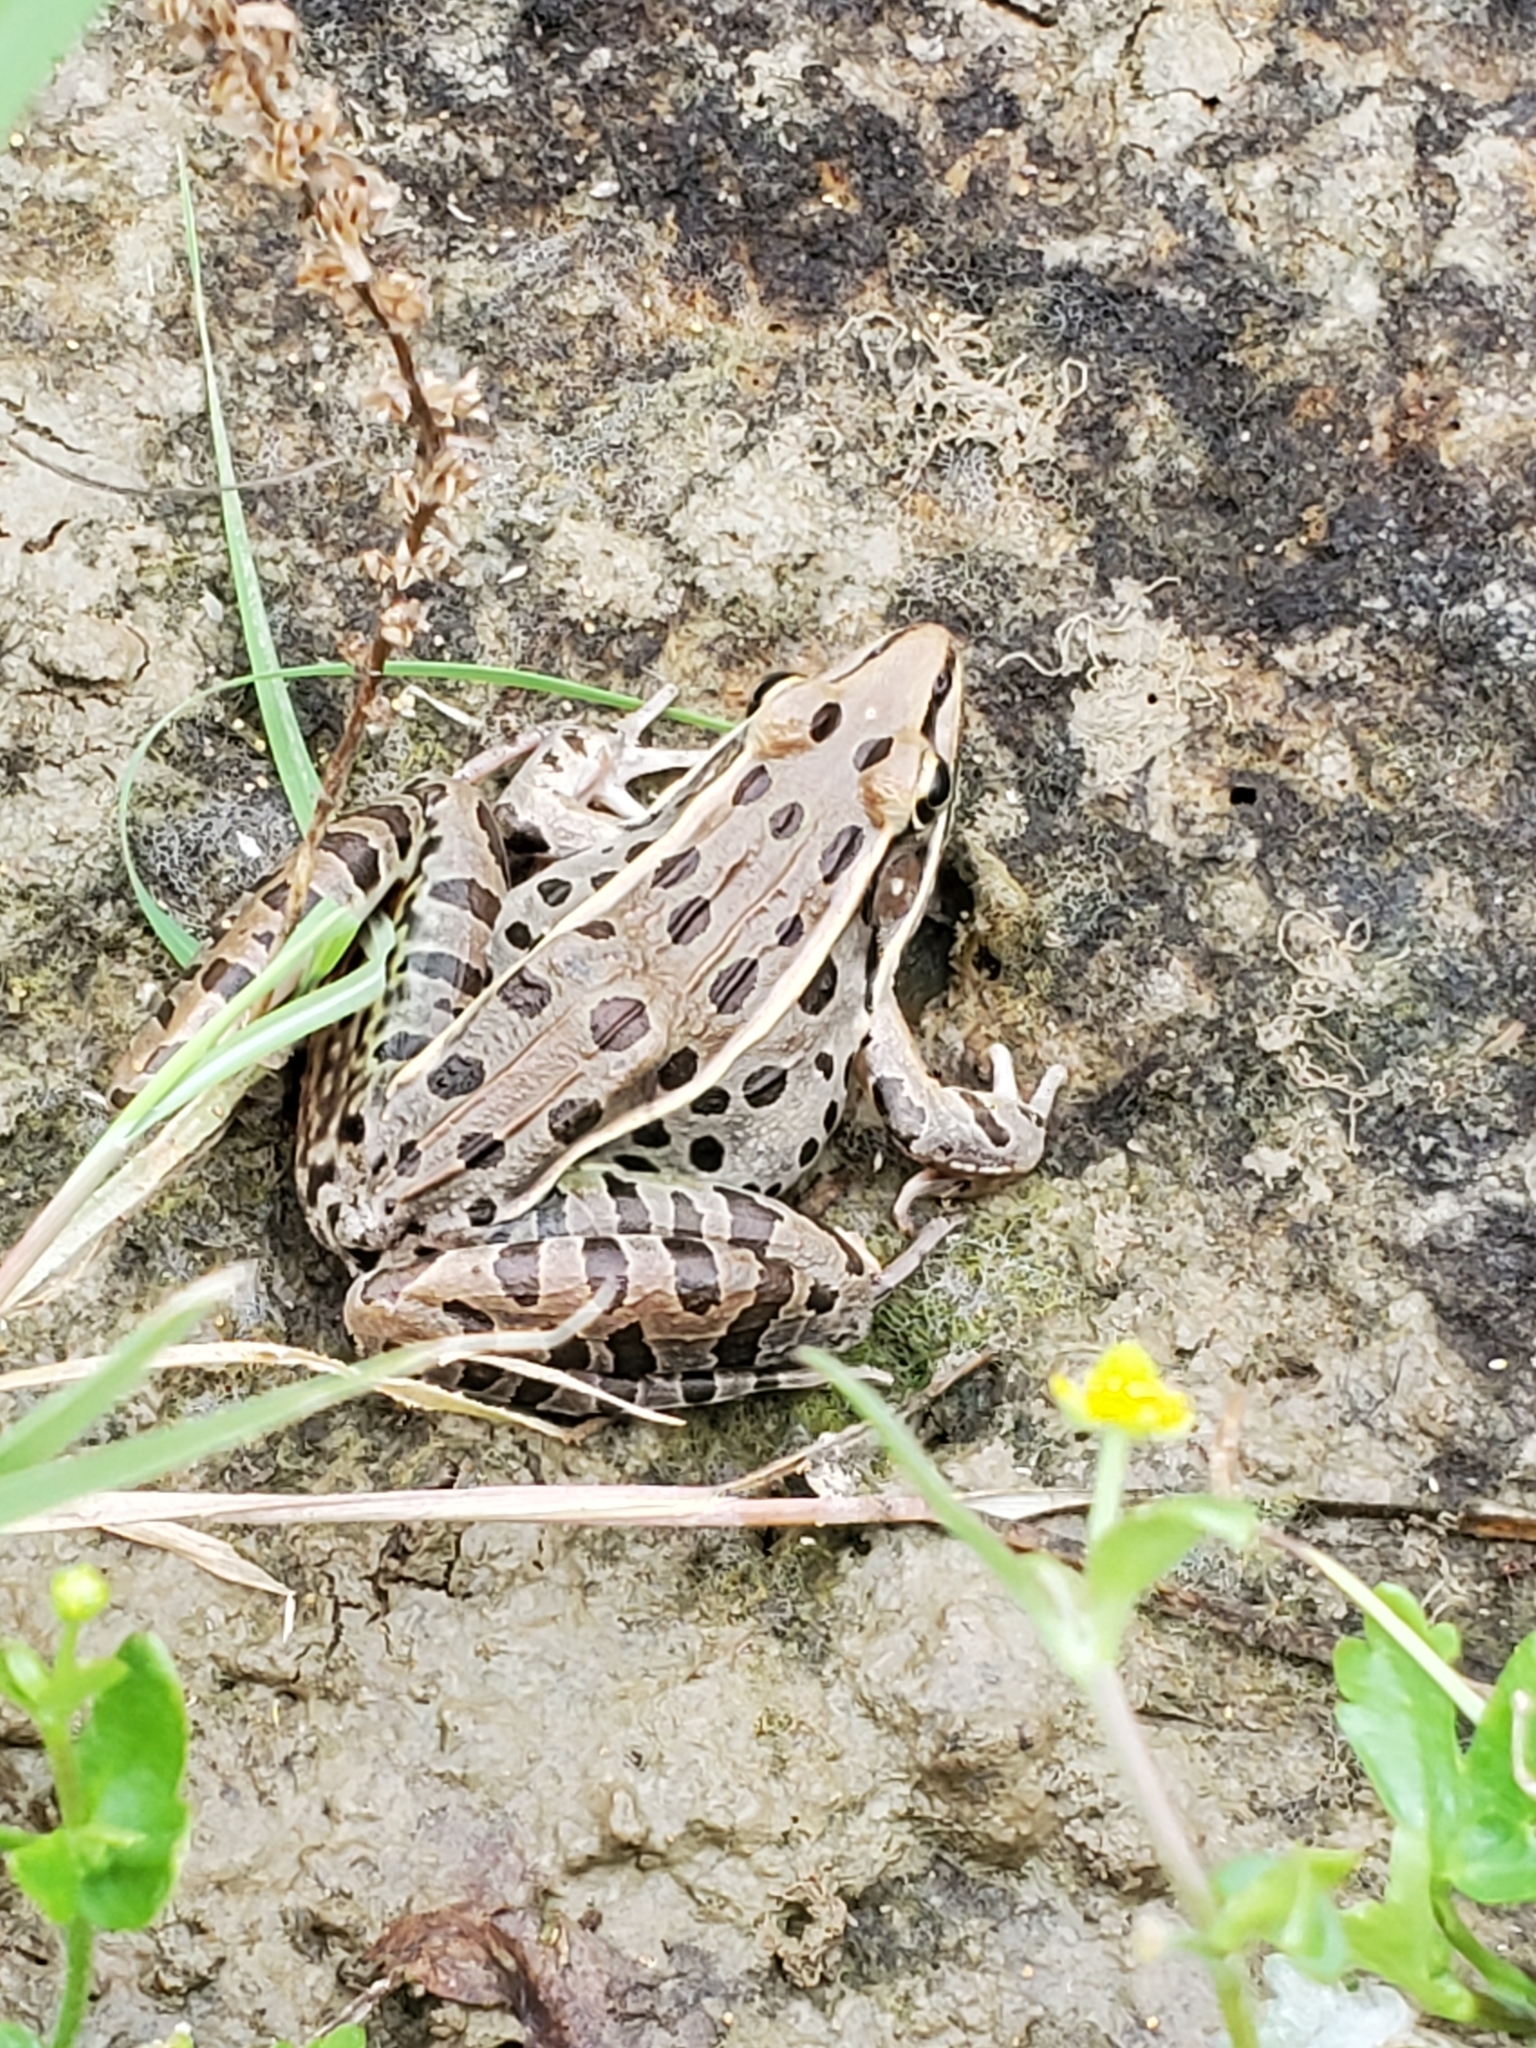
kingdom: Animalia
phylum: Chordata
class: Amphibia
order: Anura
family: Ranidae
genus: Lithobates
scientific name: Lithobates sphenocephalus
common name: Southern leopard frog
